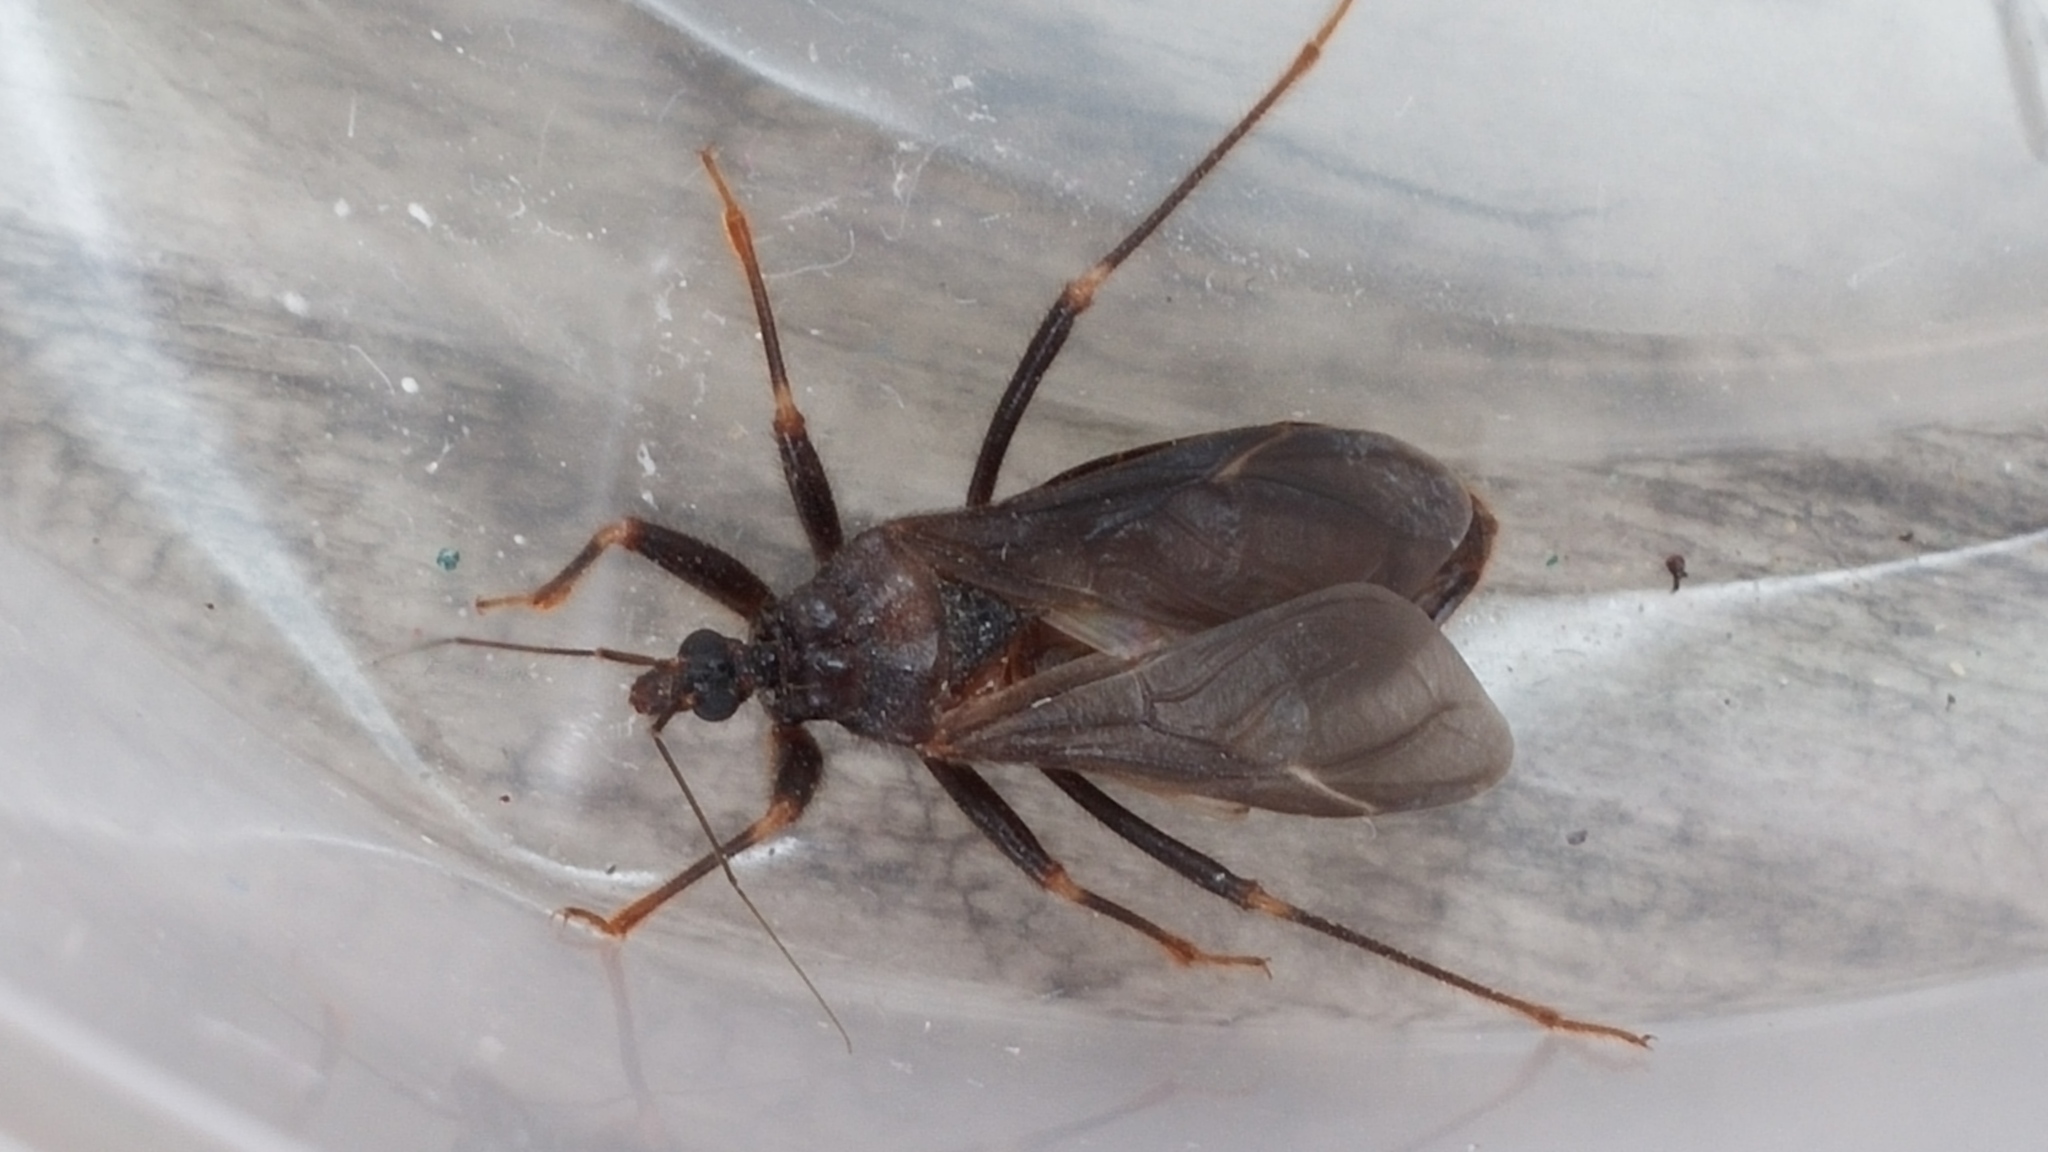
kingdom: Animalia
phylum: Arthropoda
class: Insecta
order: Hemiptera
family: Reduviidae
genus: Reduvius
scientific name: Reduvius personatus
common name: Masked hunter
